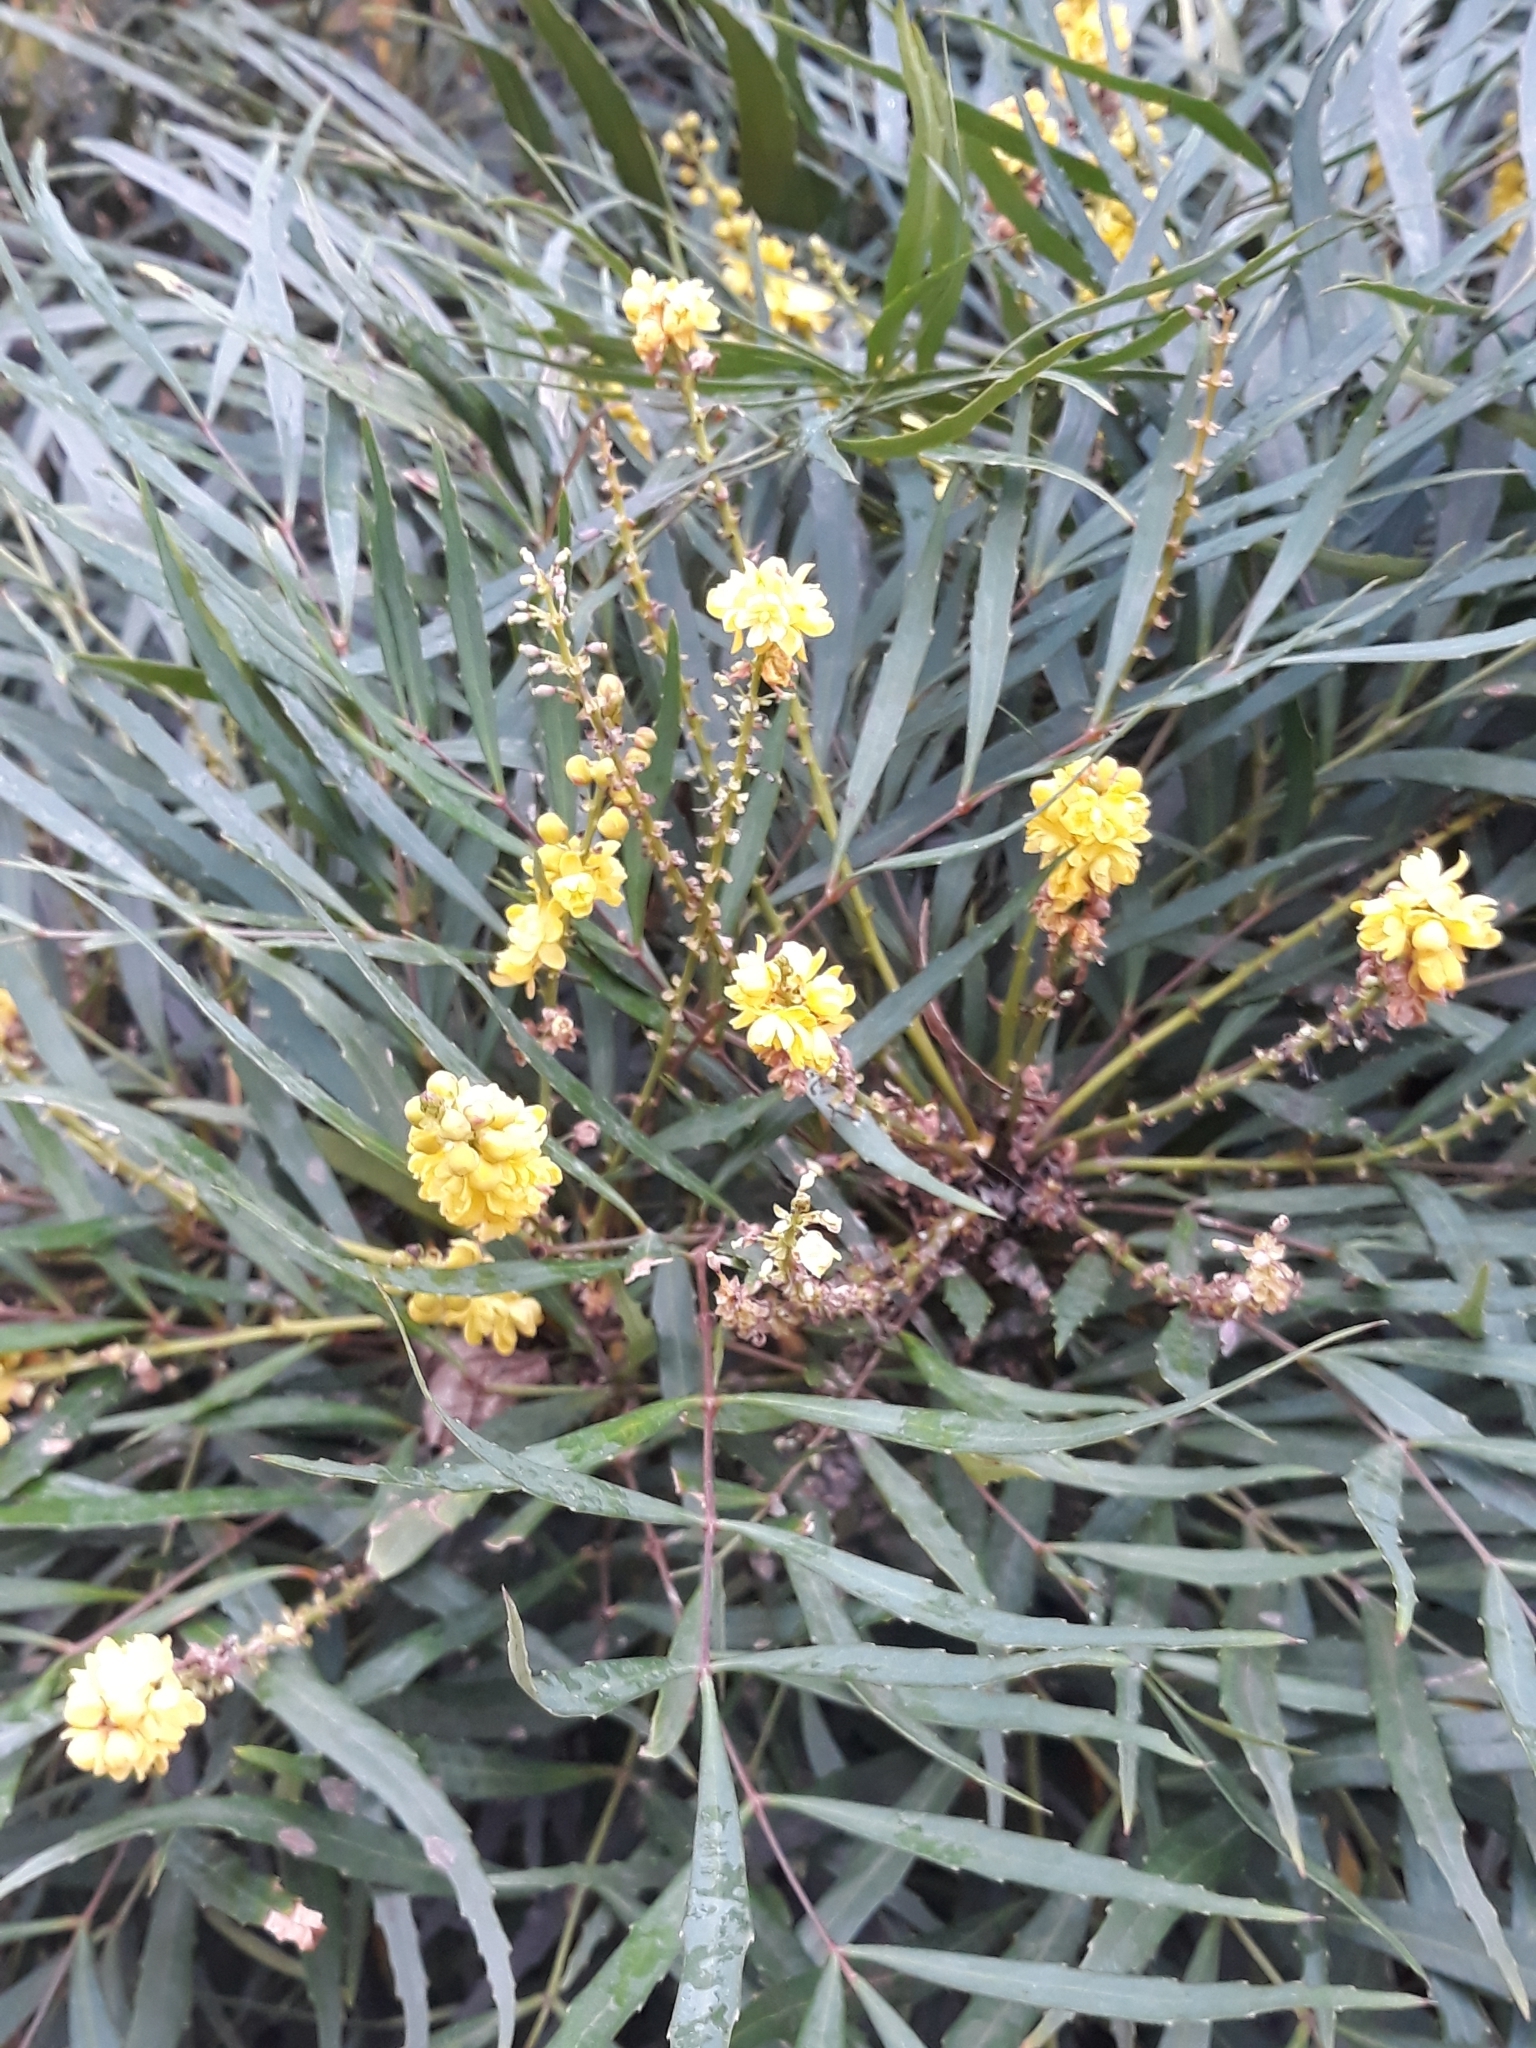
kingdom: Plantae
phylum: Tracheophyta
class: Magnoliopsida
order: Brassicales
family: Brassicaceae
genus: Rapistrum
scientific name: Rapistrum rugosum
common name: Annual bastardcabbage
